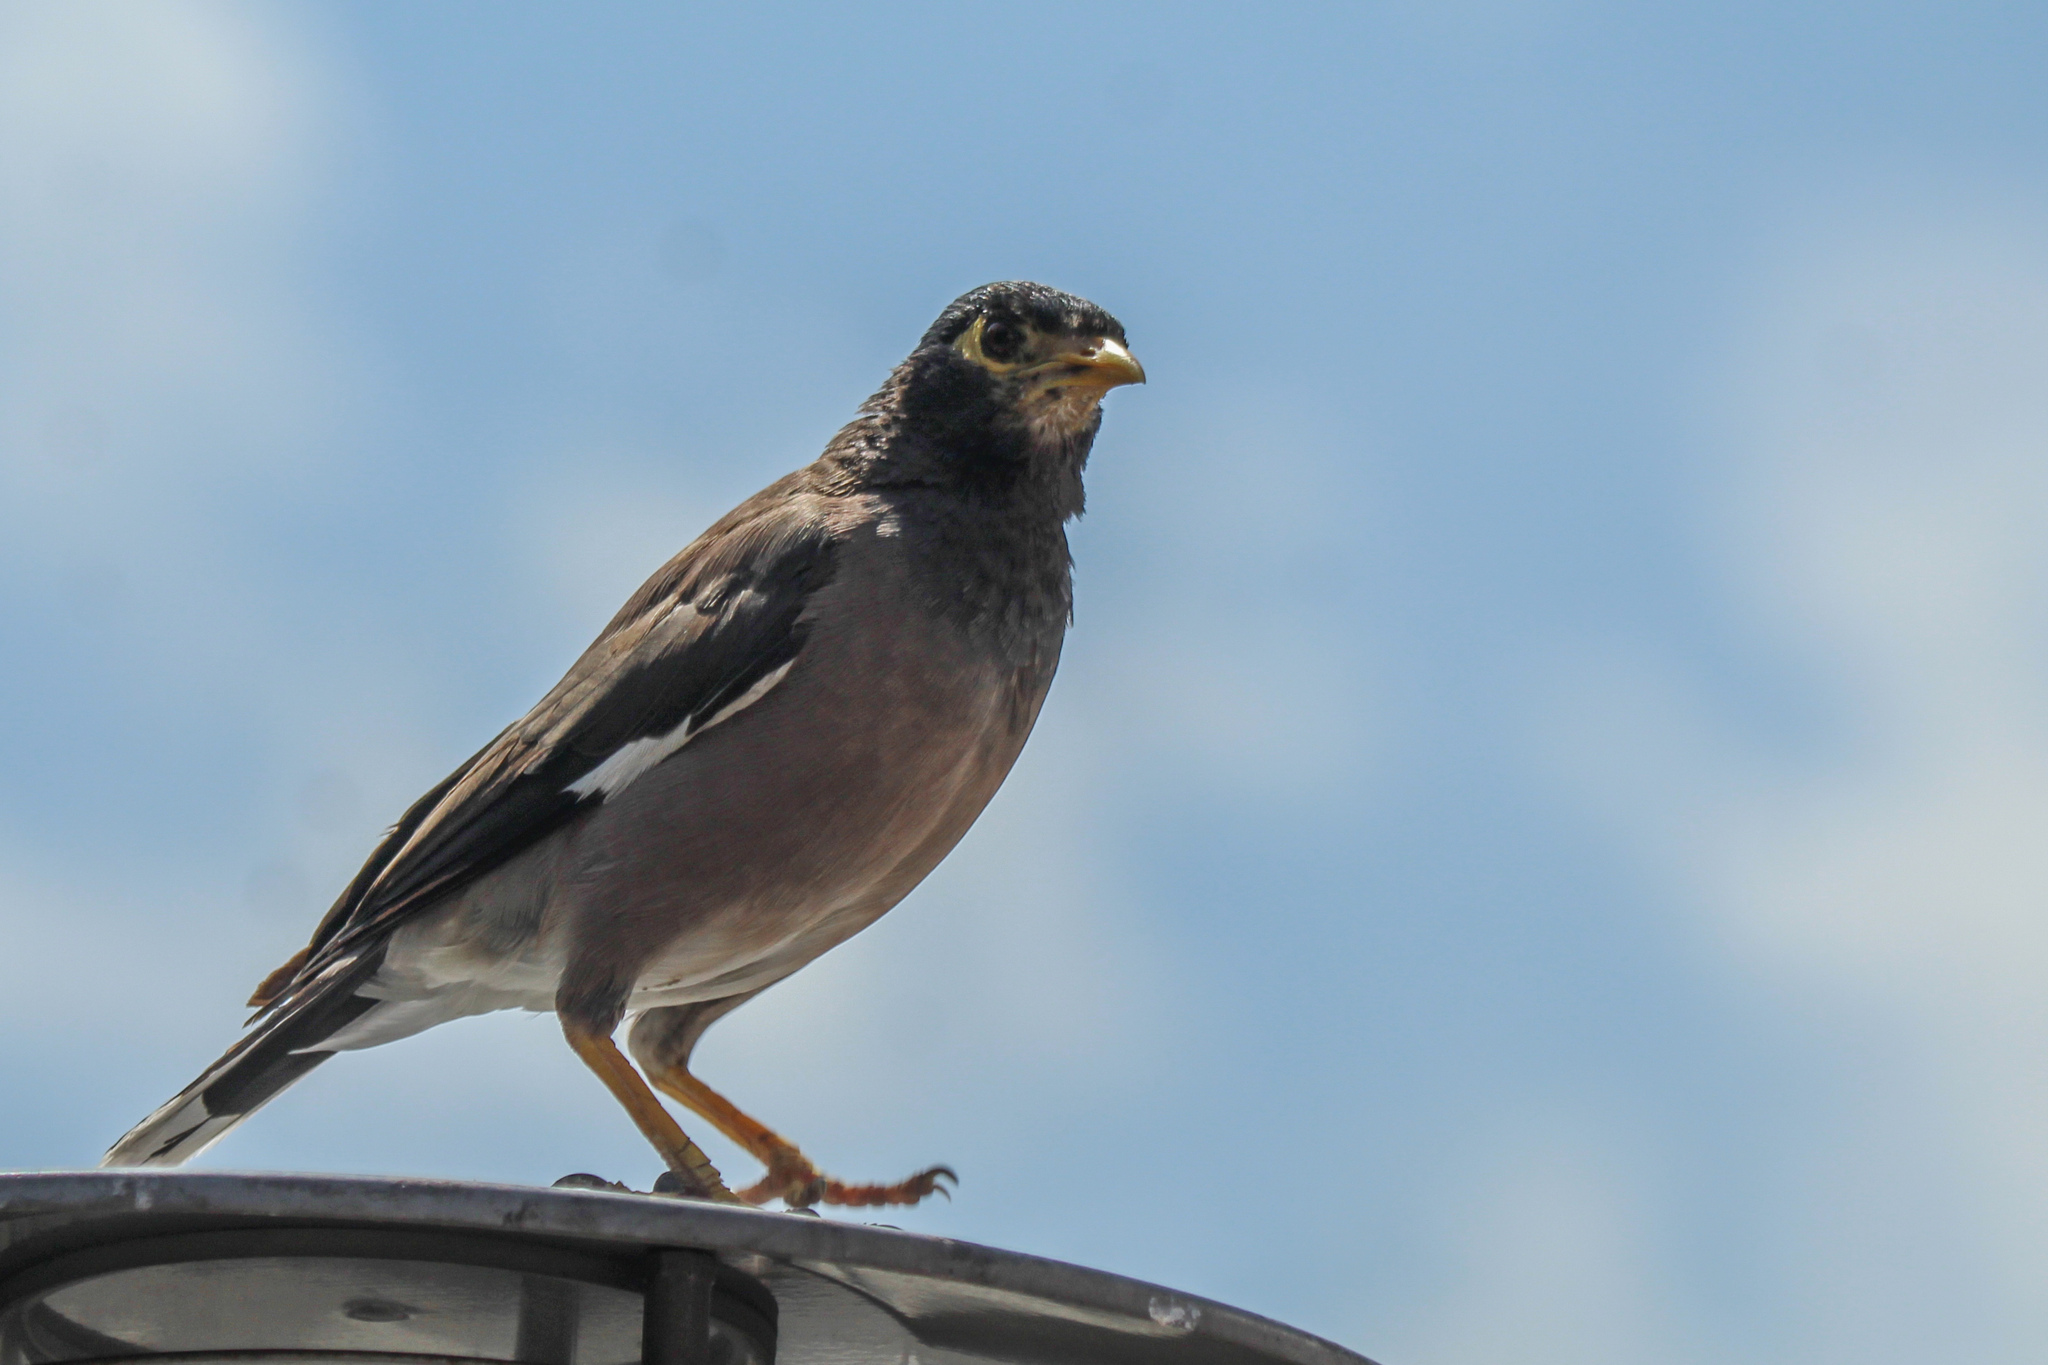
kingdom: Animalia
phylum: Chordata
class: Aves
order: Passeriformes
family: Sturnidae
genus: Acridotheres
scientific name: Acridotheres tristis
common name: Common myna
